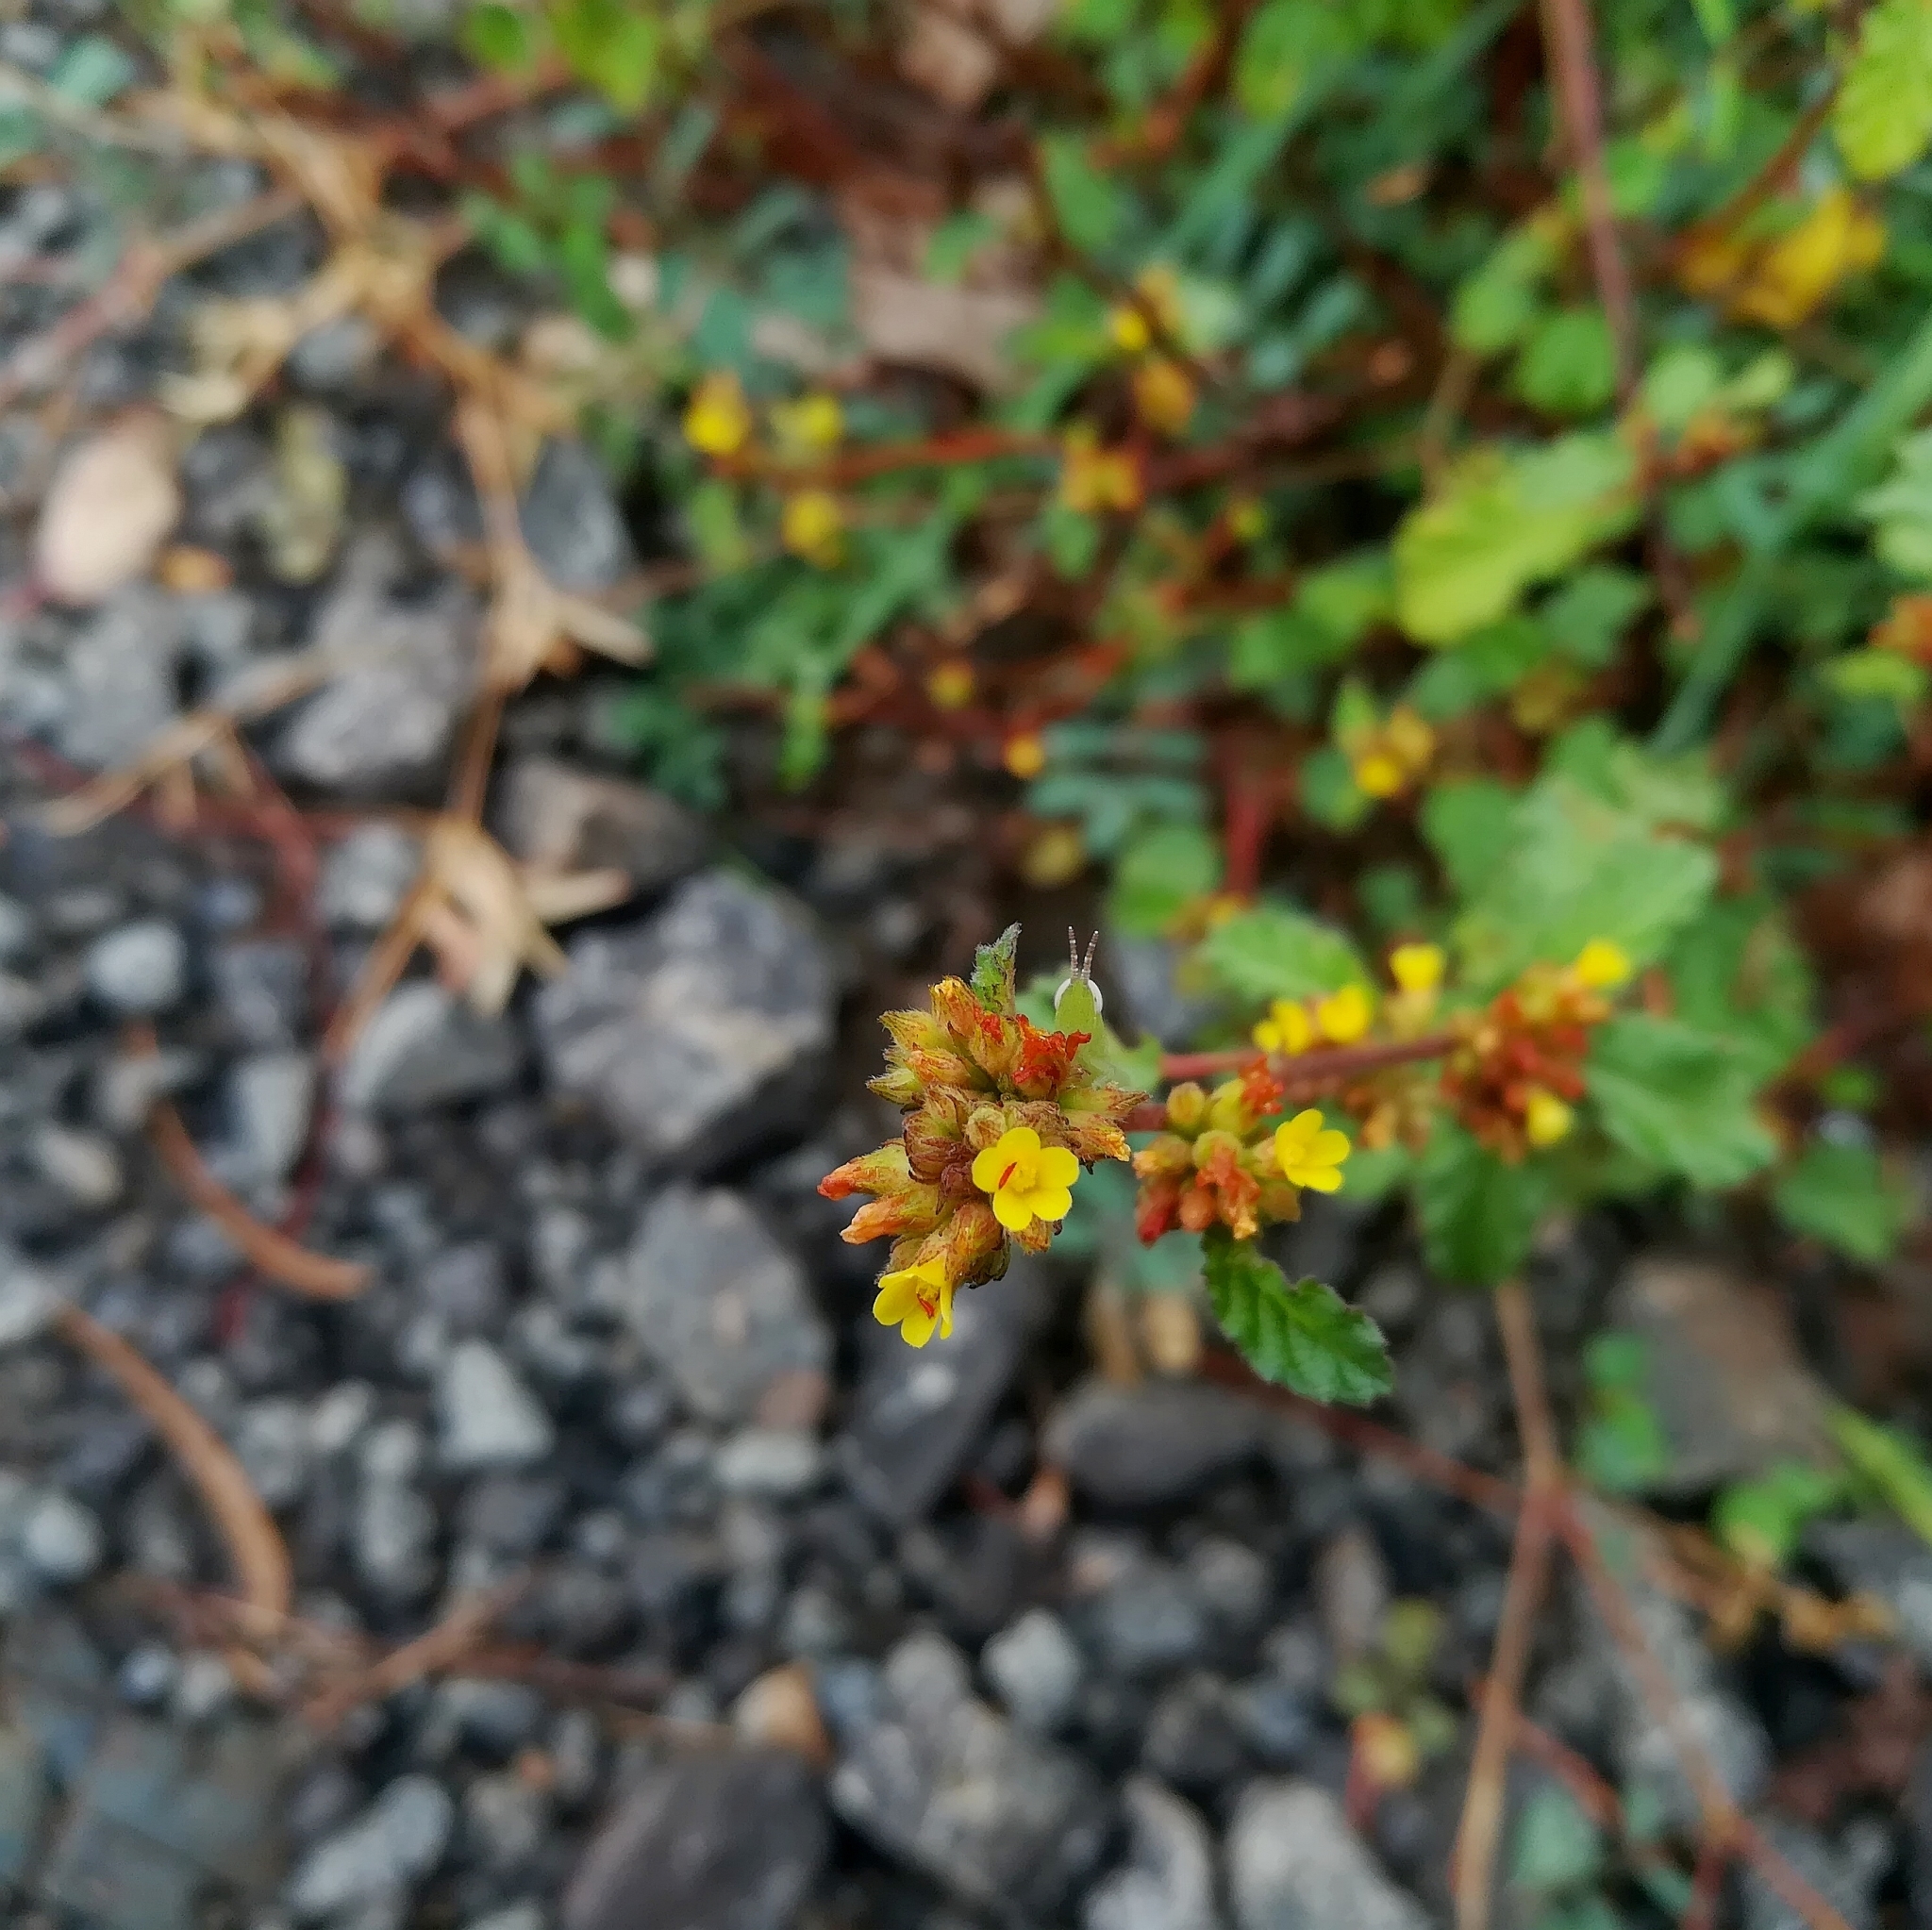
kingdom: Plantae
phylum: Tracheophyta
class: Magnoliopsida
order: Malvales
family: Malvaceae
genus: Waltheria
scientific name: Waltheria indica
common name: Leather-coat
